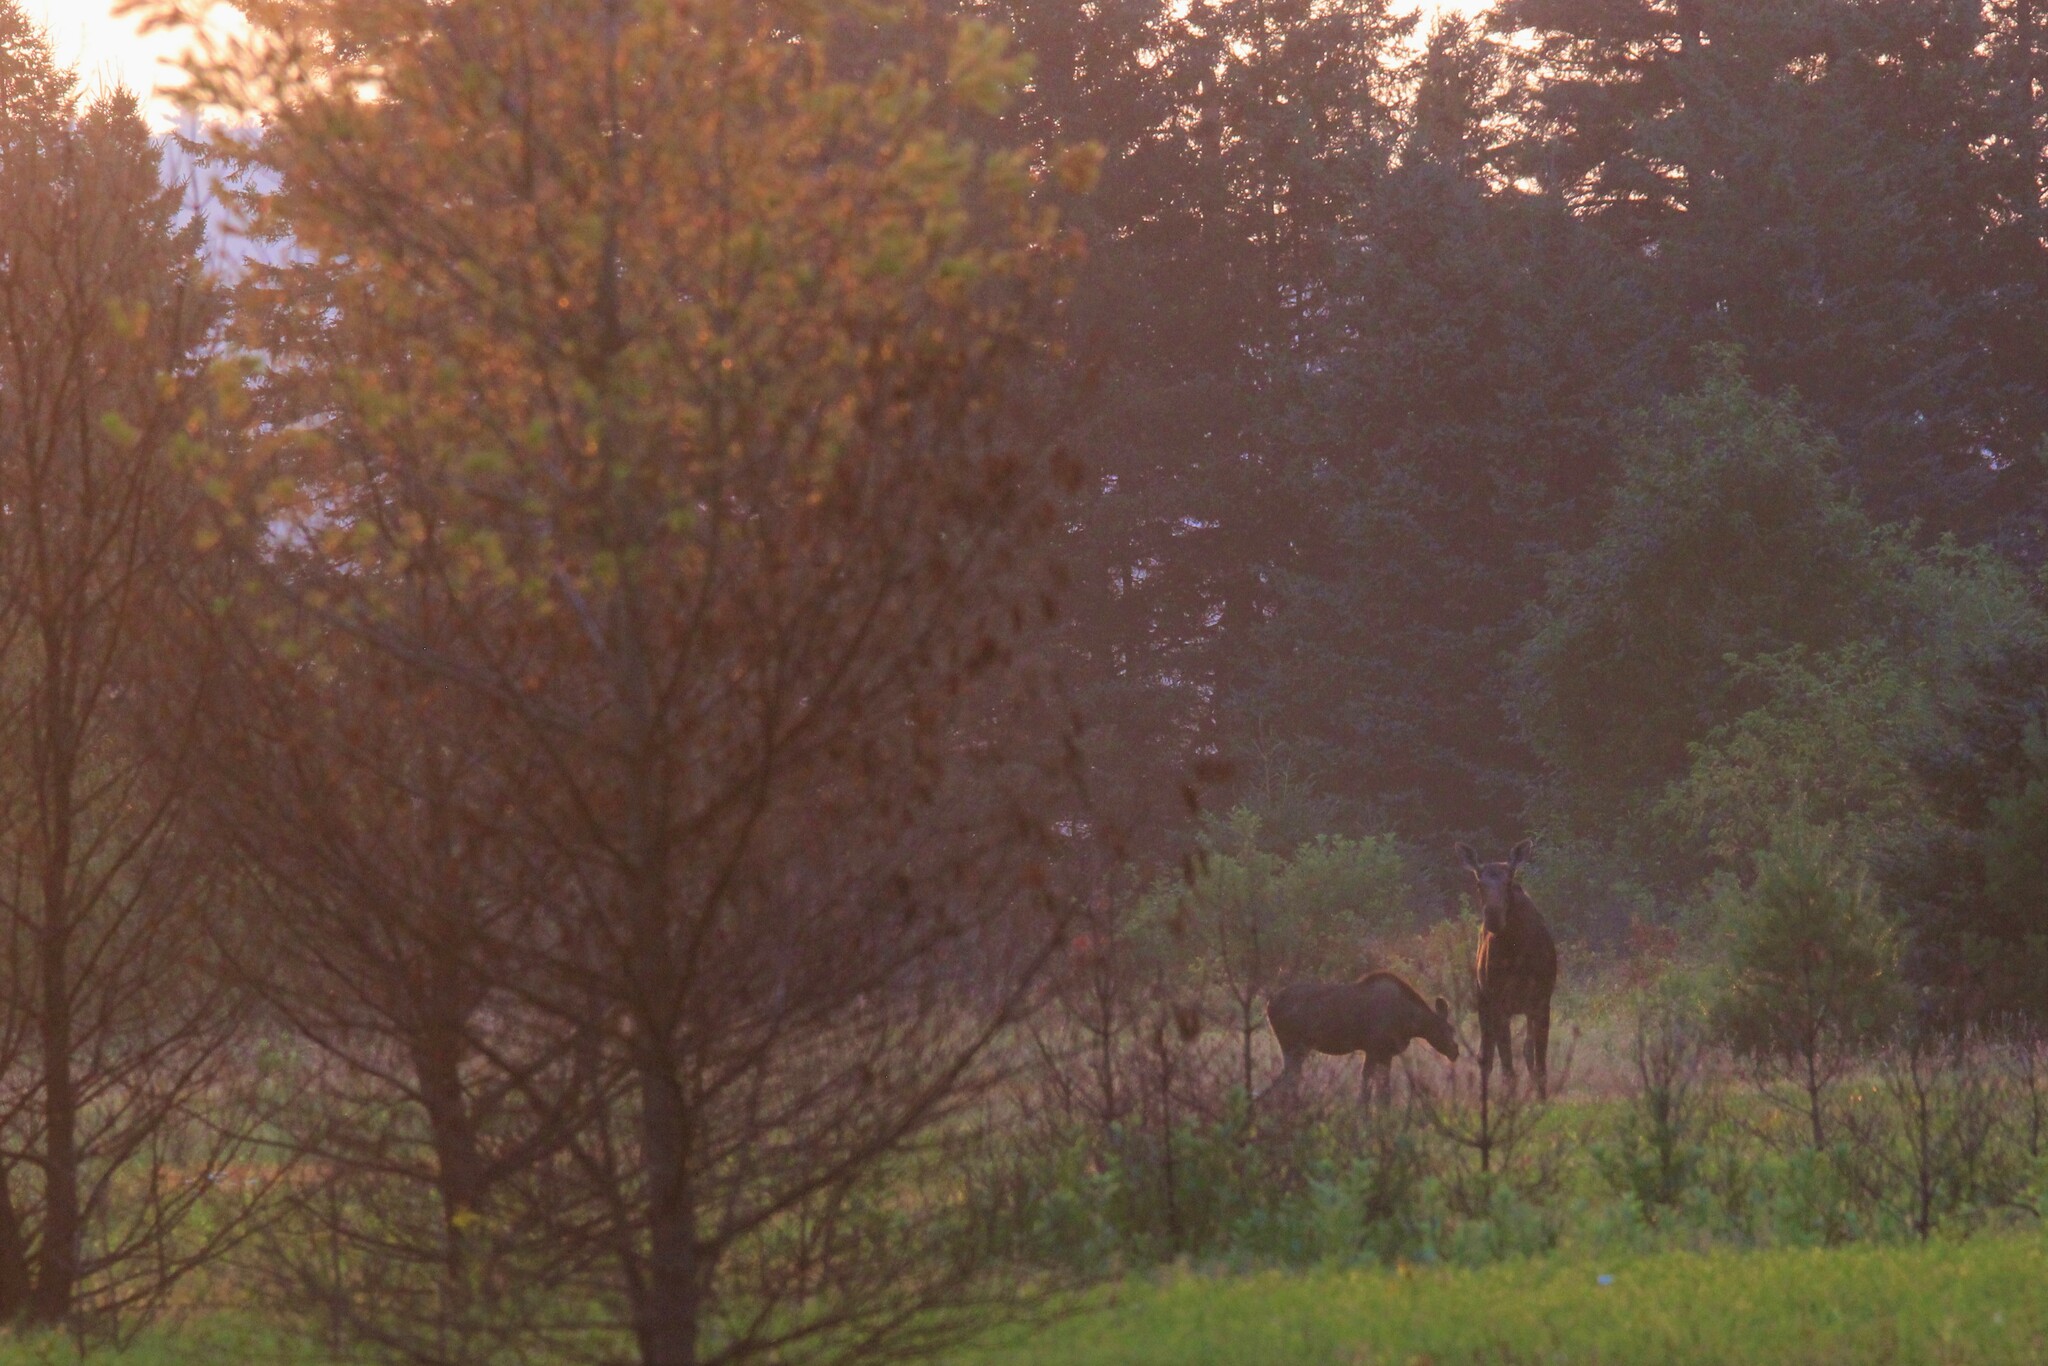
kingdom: Animalia
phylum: Chordata
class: Mammalia
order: Artiodactyla
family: Cervidae
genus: Alces
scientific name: Alces alces
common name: Moose
